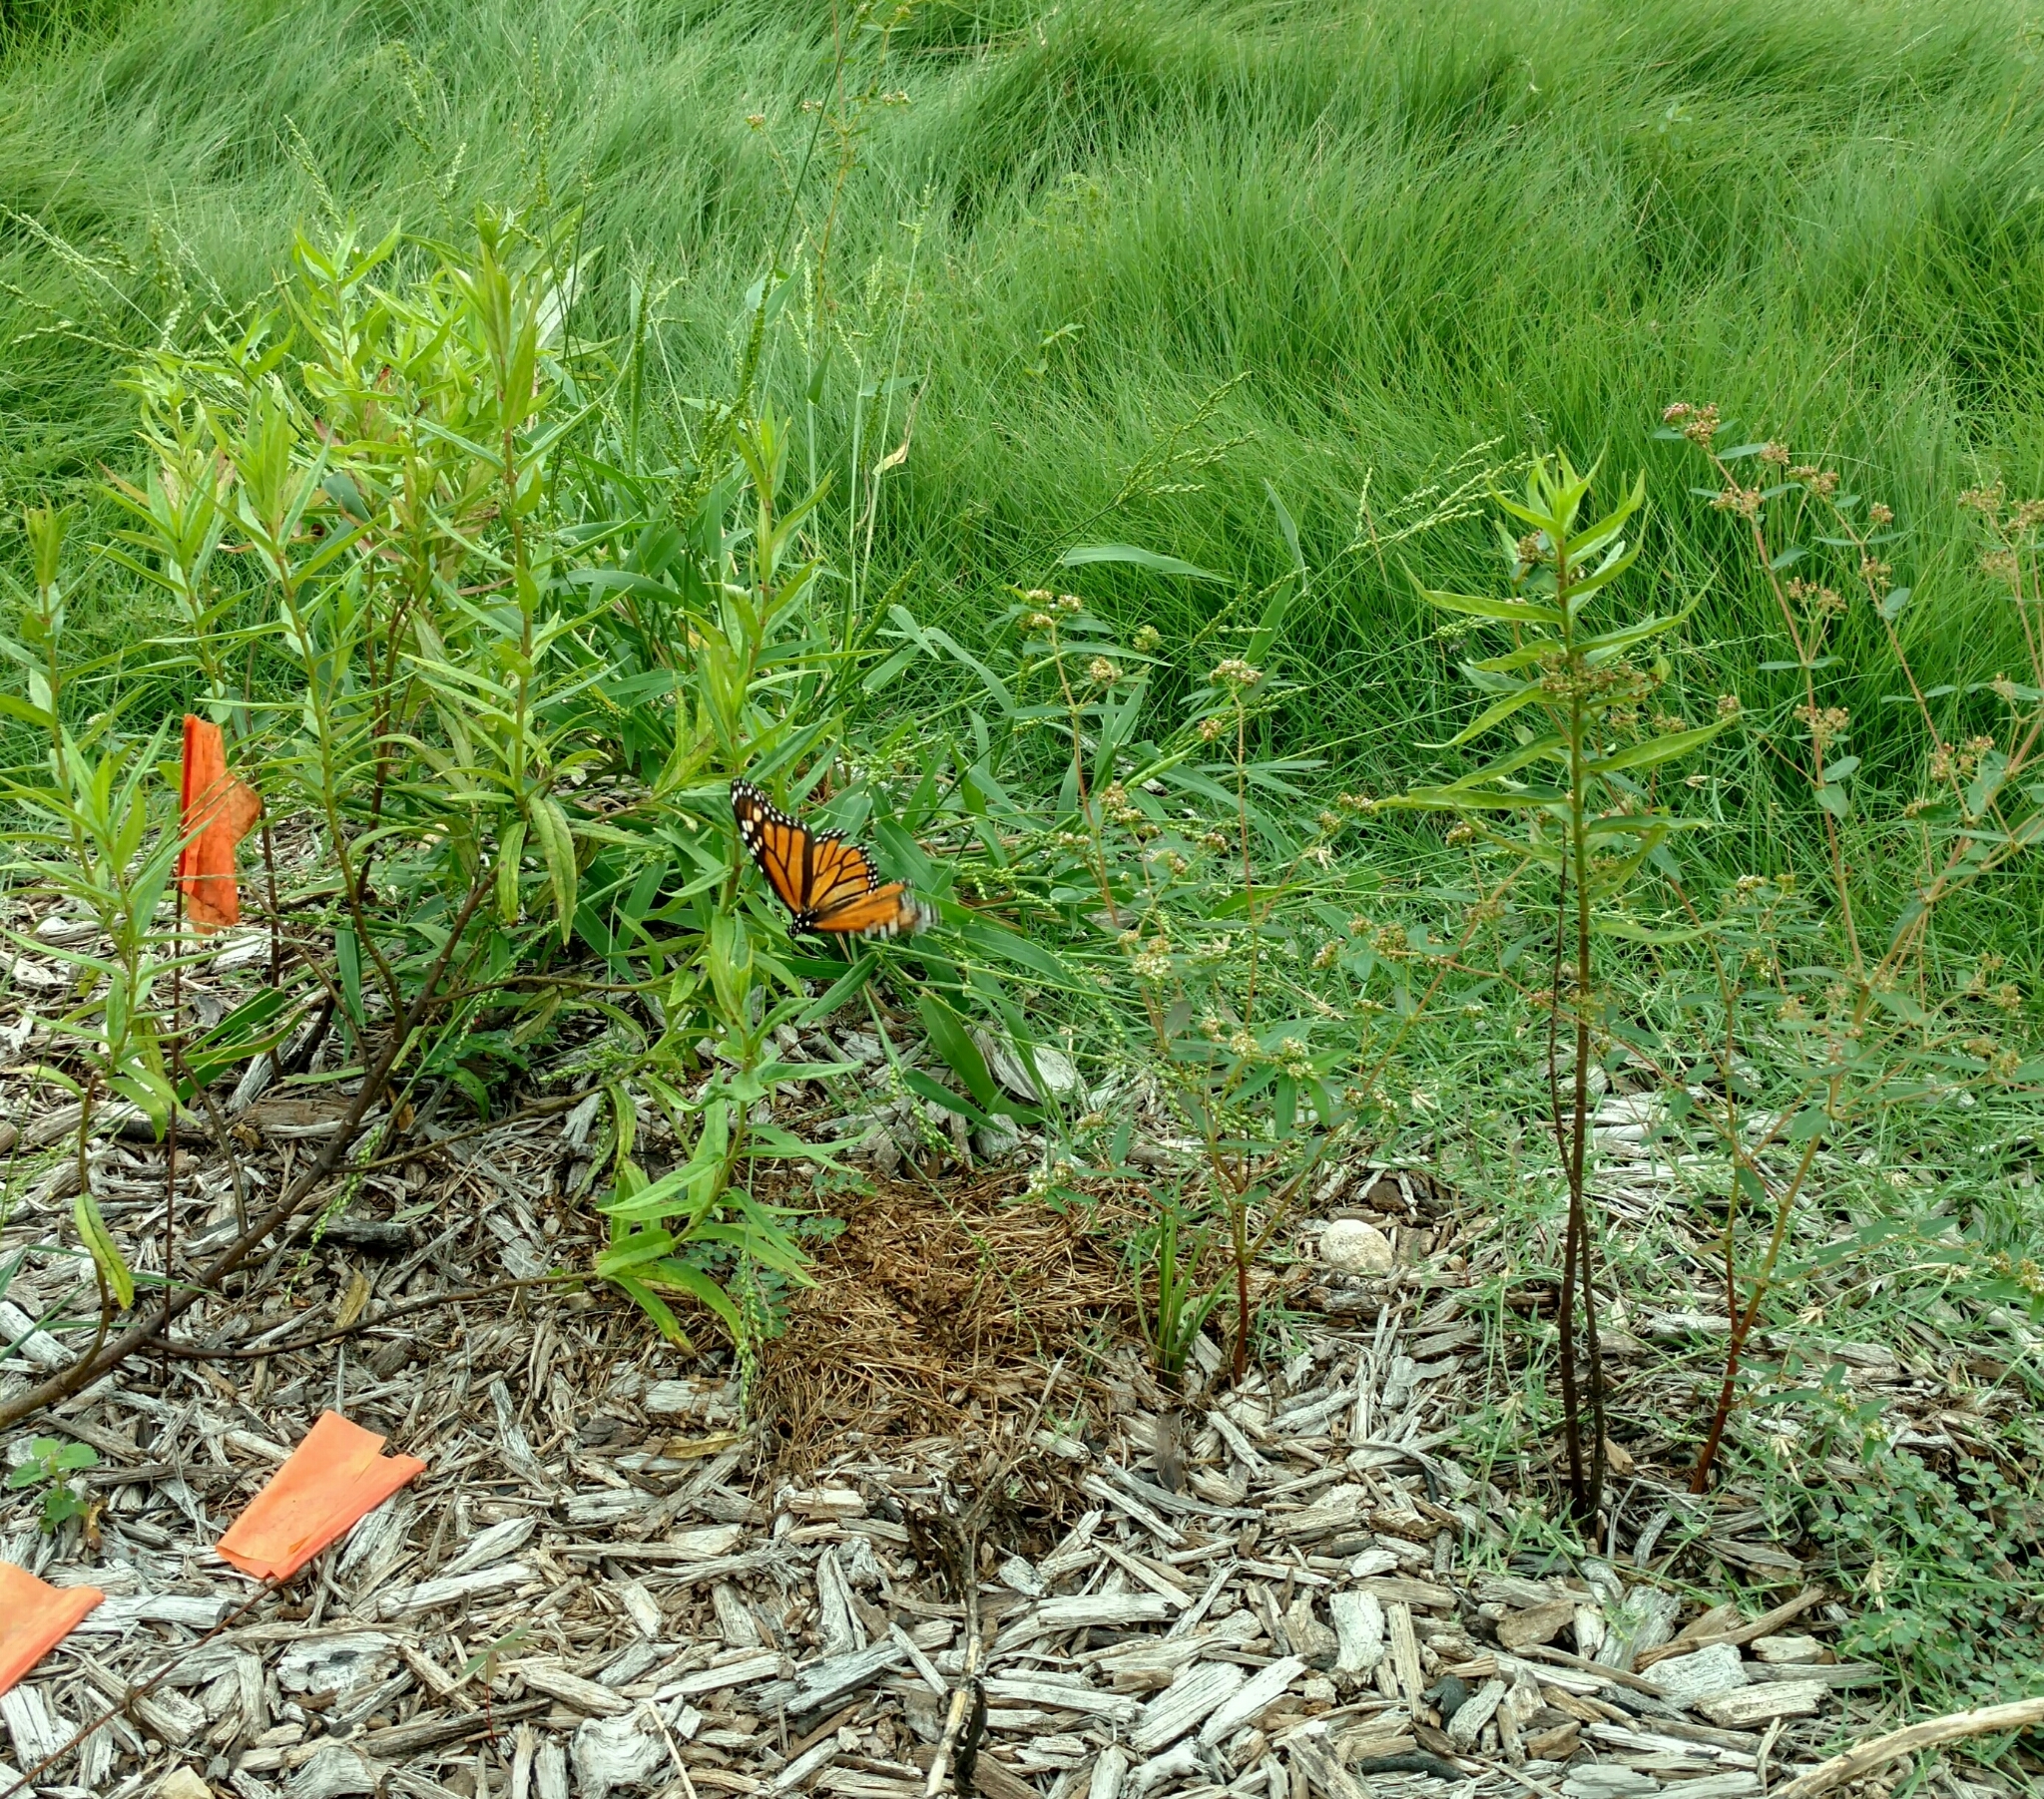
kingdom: Animalia
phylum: Arthropoda
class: Insecta
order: Lepidoptera
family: Nymphalidae
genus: Danaus
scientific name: Danaus plexippus
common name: Monarch
